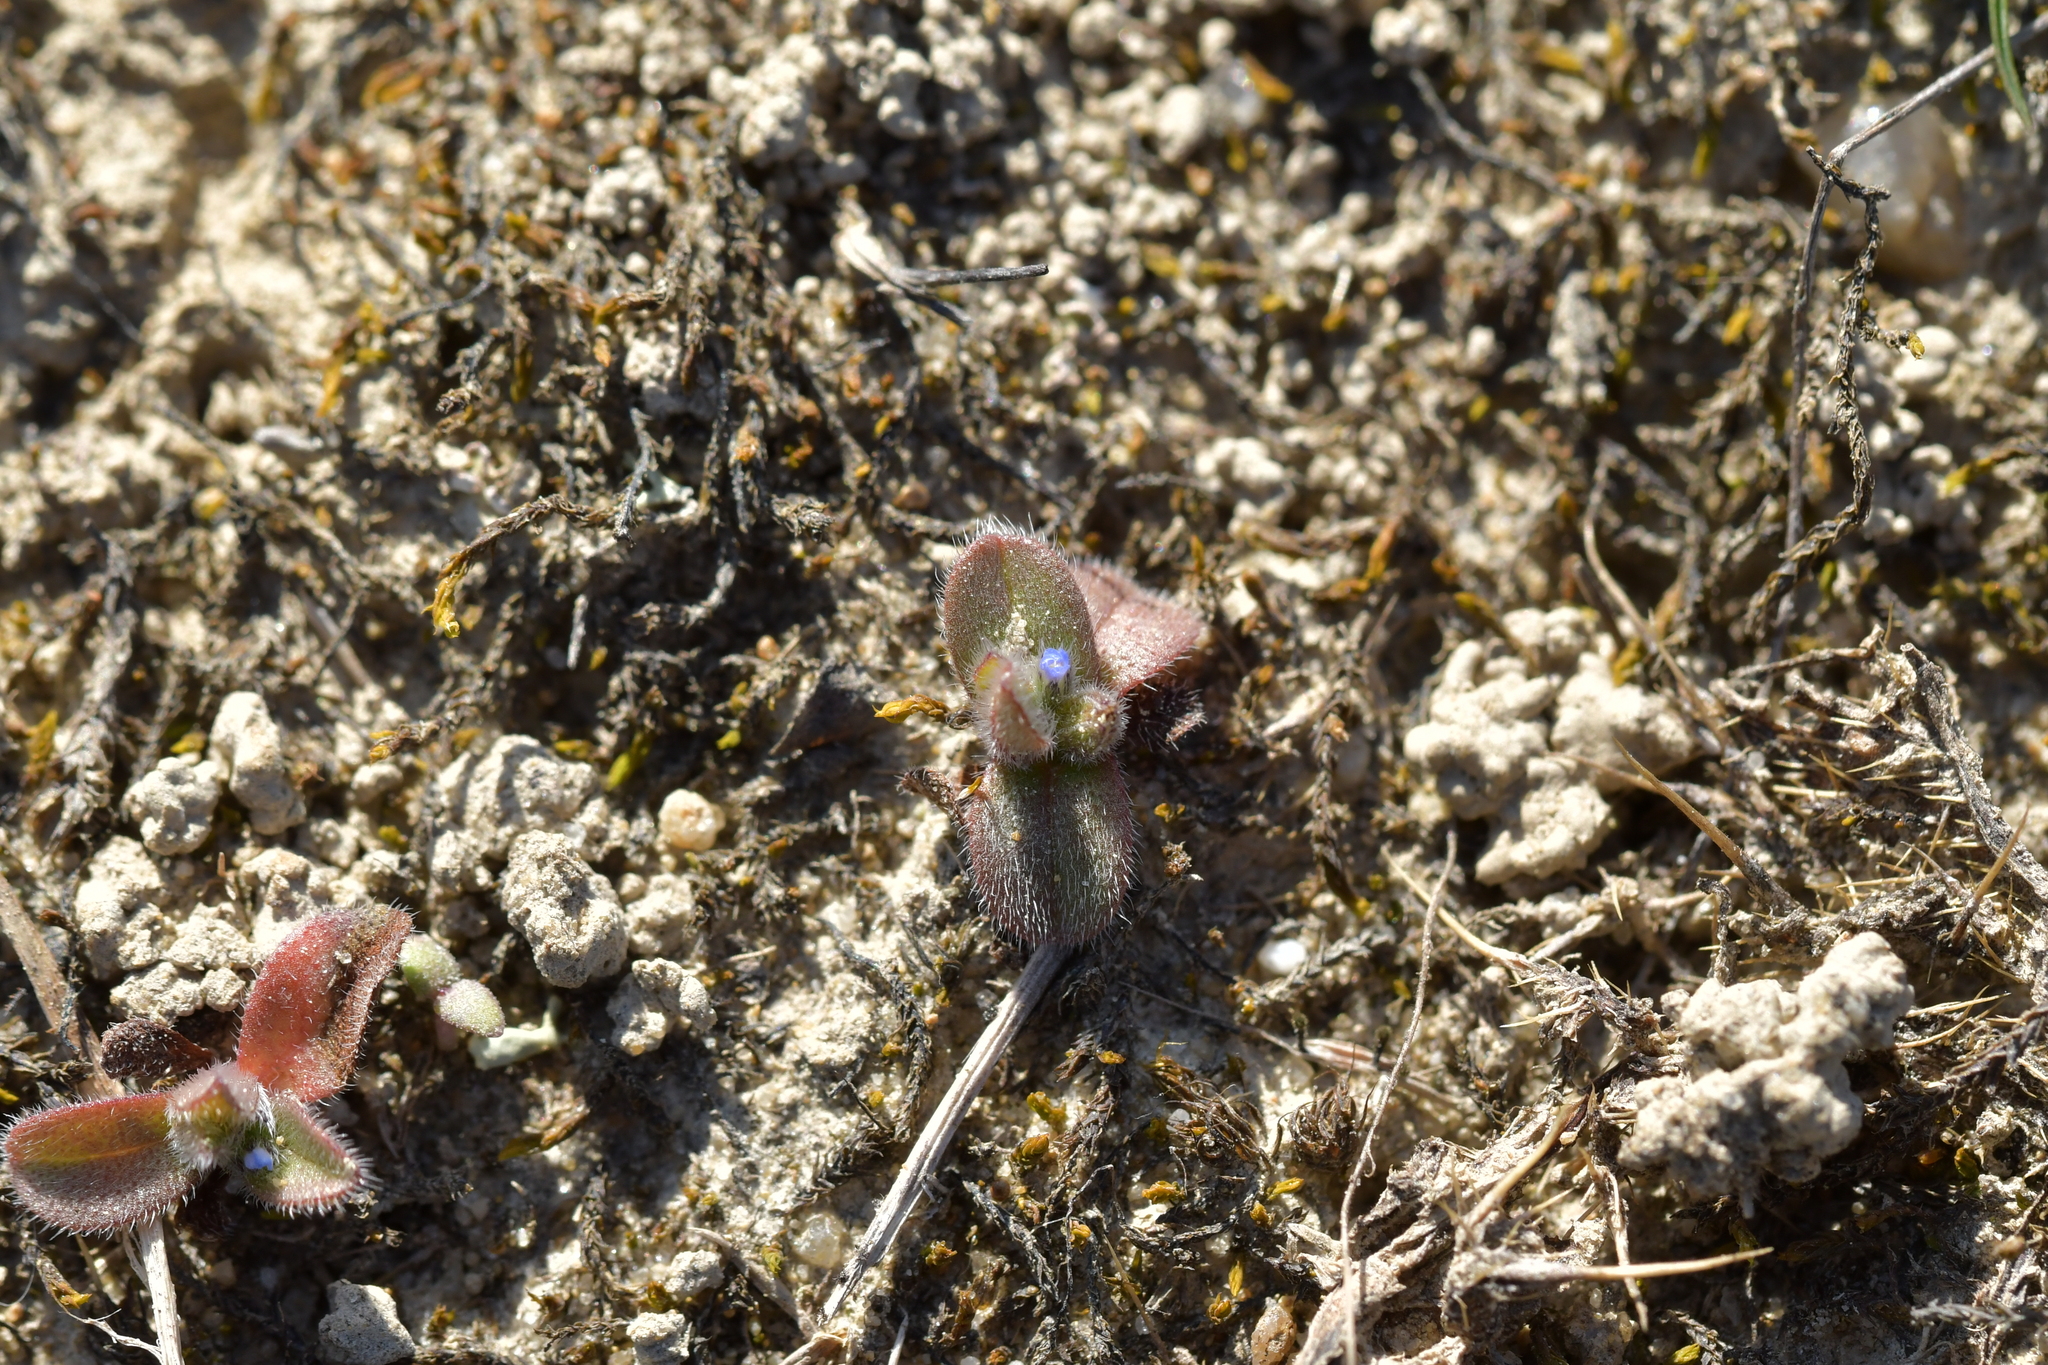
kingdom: Plantae
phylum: Tracheophyta
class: Magnoliopsida
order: Boraginales
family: Boraginaceae
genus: Myosotis
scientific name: Myosotis stricta
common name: Strict forget-me-not
